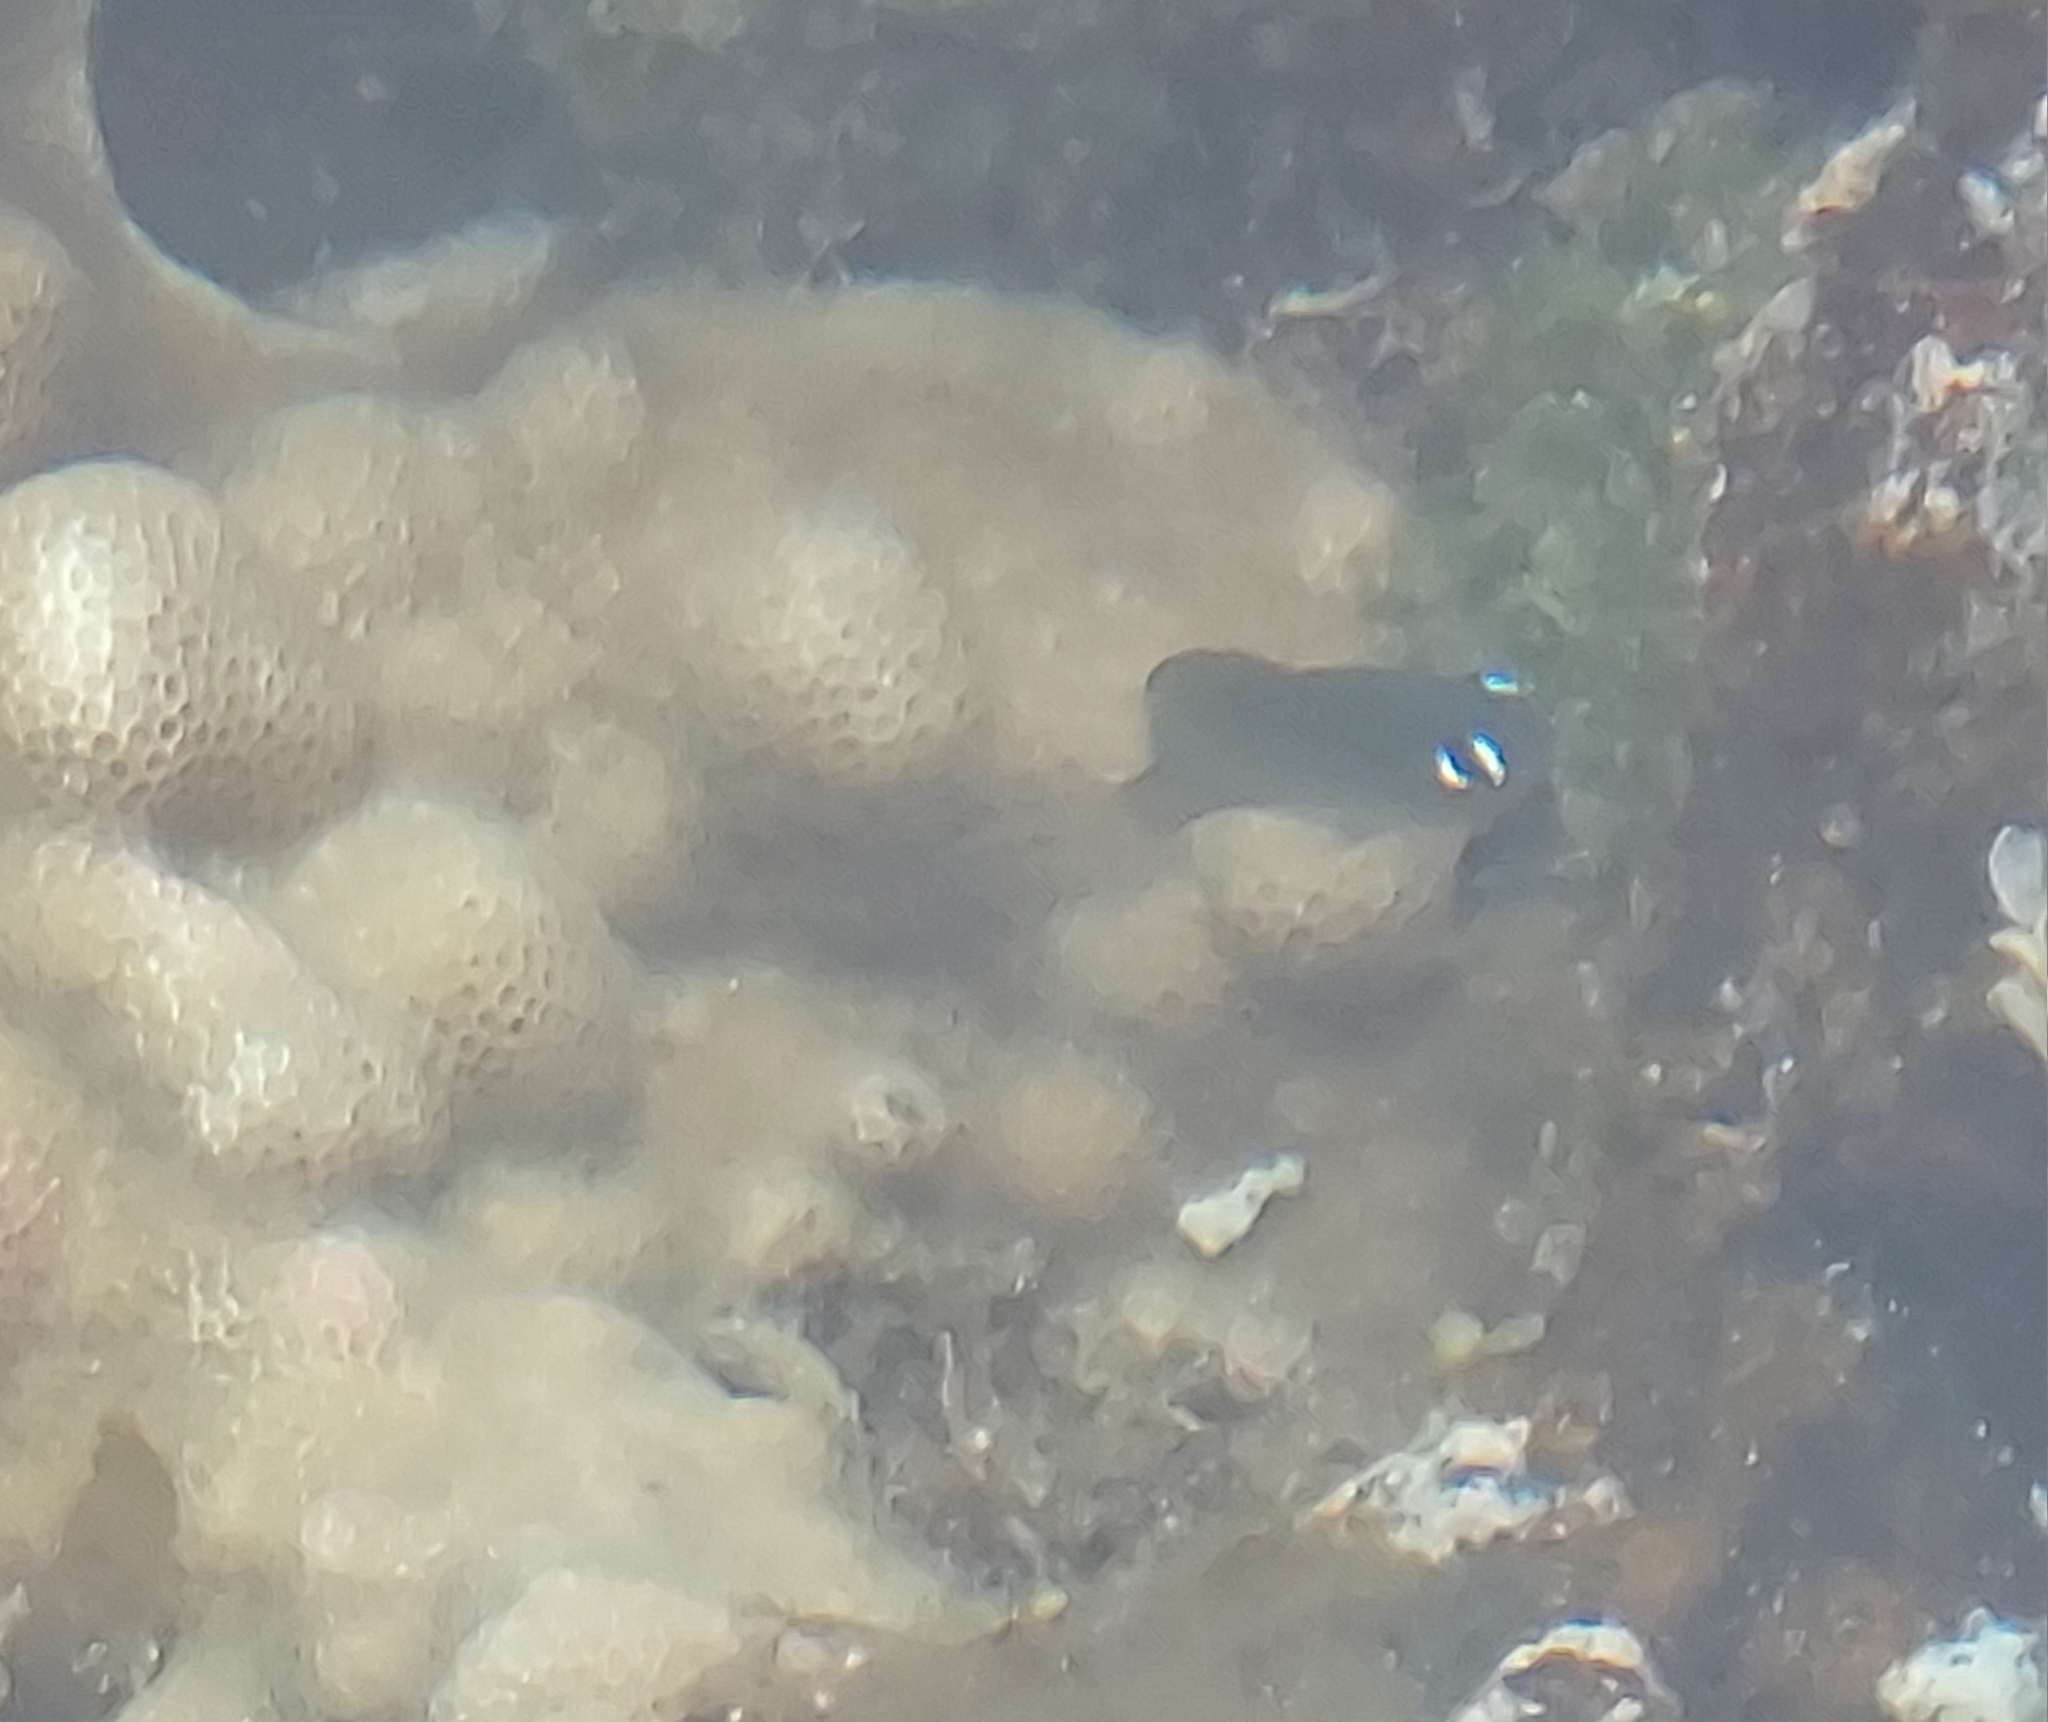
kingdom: Animalia
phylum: Chordata
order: Perciformes
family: Pomacentridae
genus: Plectroglyphidodon
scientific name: Plectroglyphidodon imparipennis
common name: Brighteye damsel
